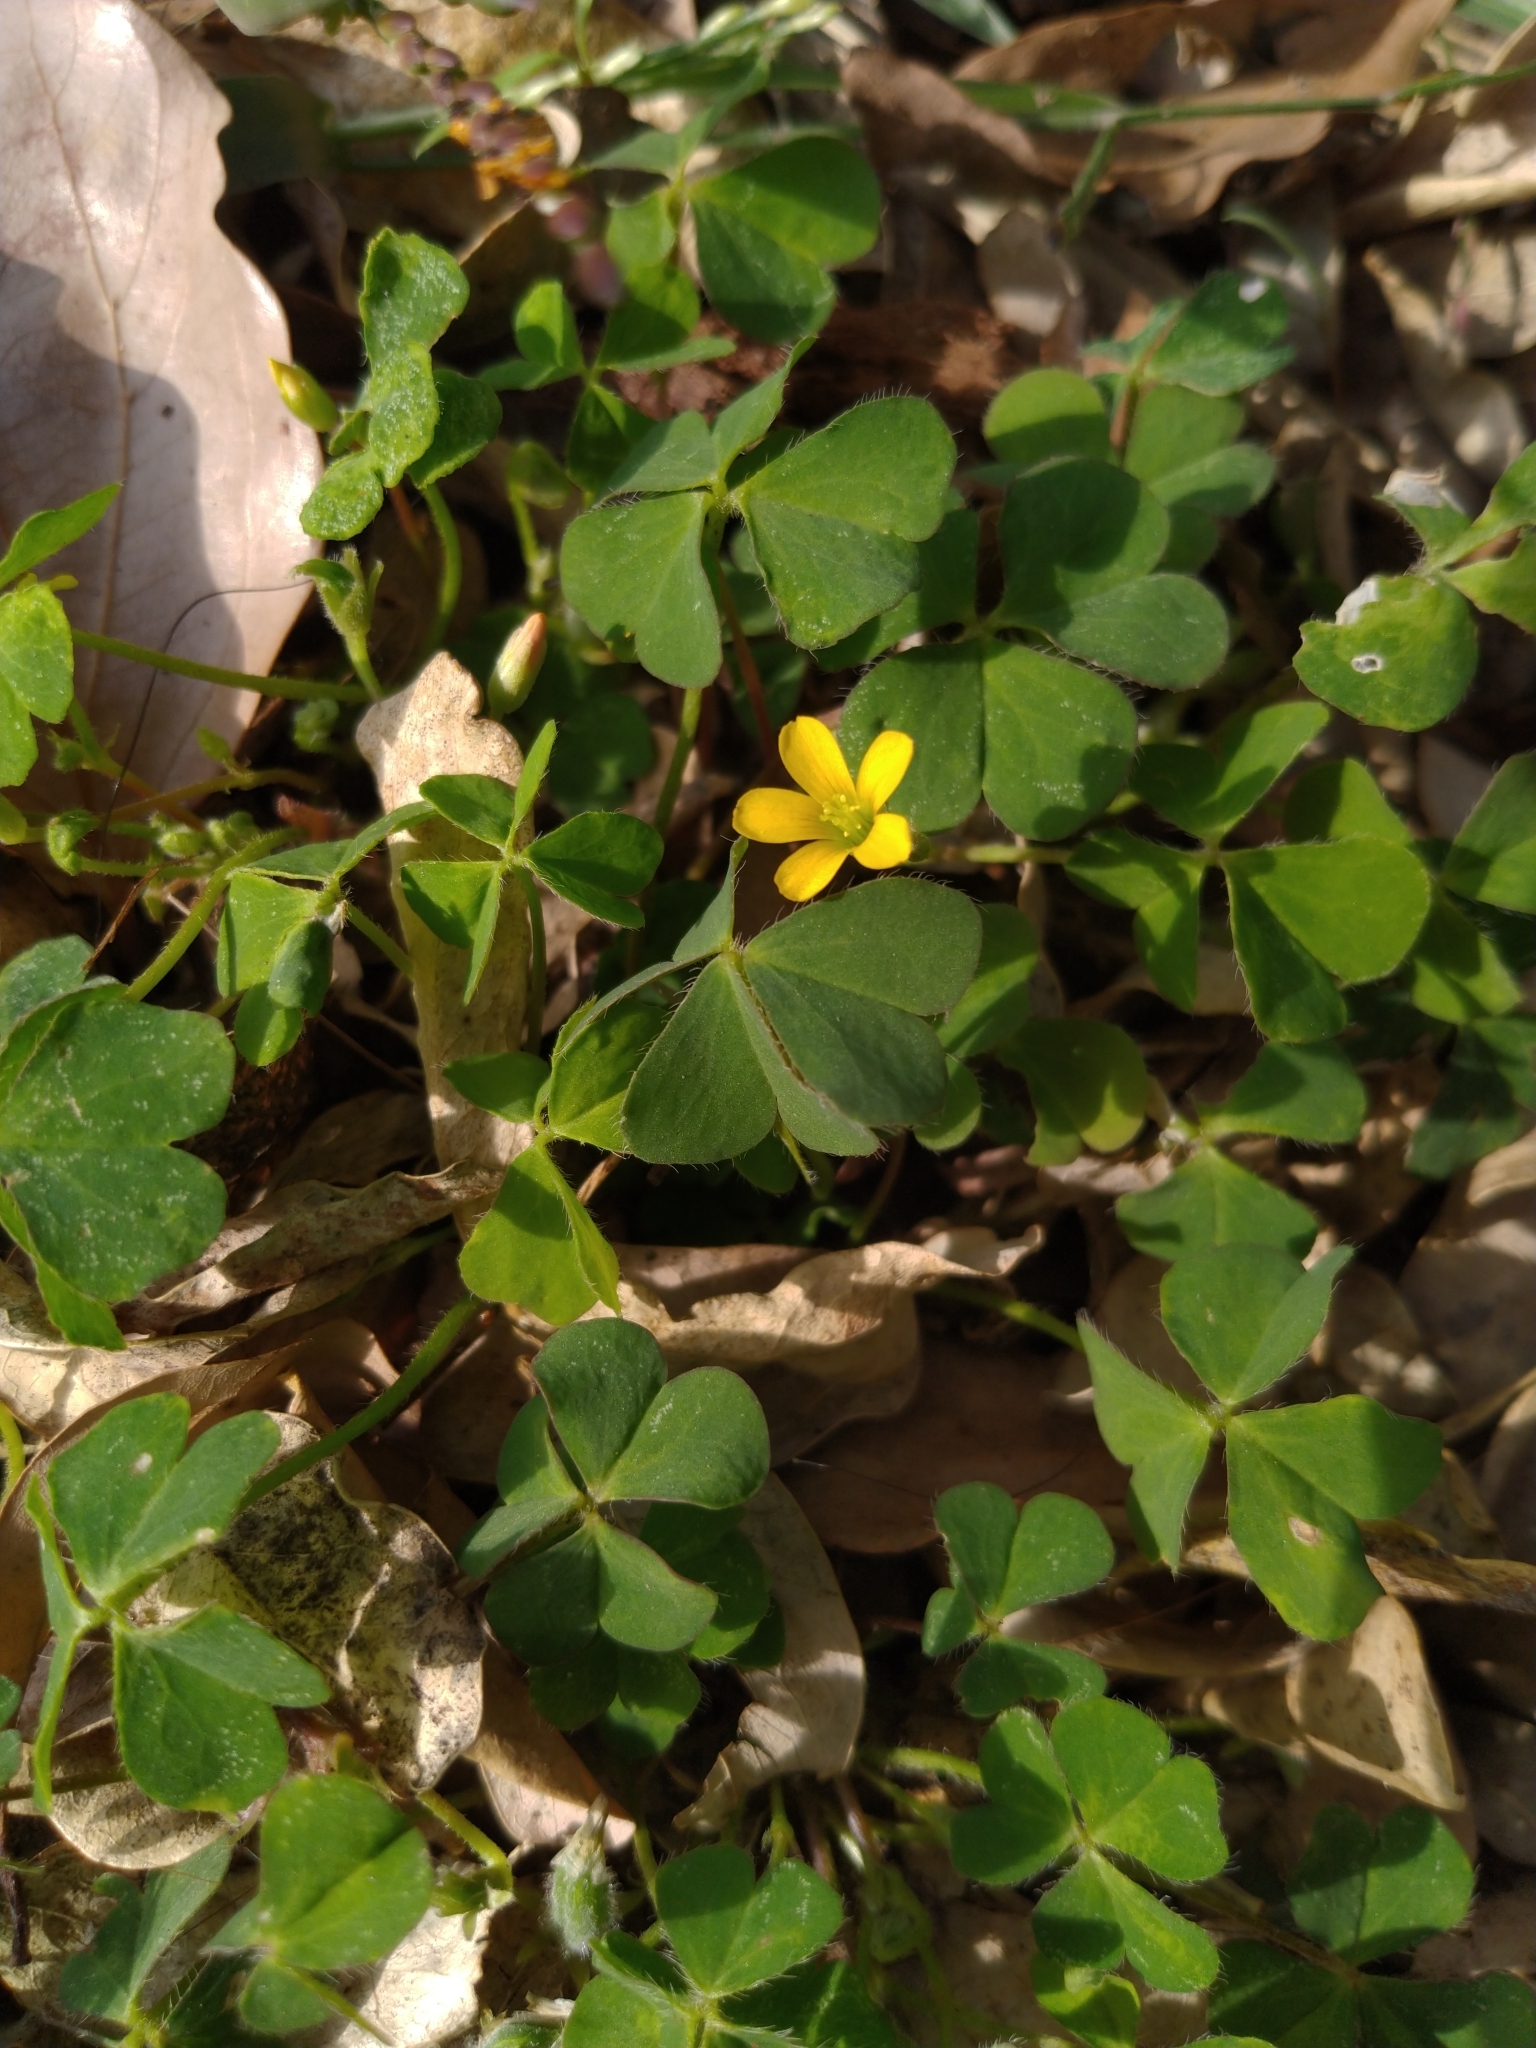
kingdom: Plantae
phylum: Tracheophyta
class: Magnoliopsida
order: Oxalidales
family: Oxalidaceae
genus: Oxalis
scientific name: Oxalis corniculata
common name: Procumbent yellow-sorrel
